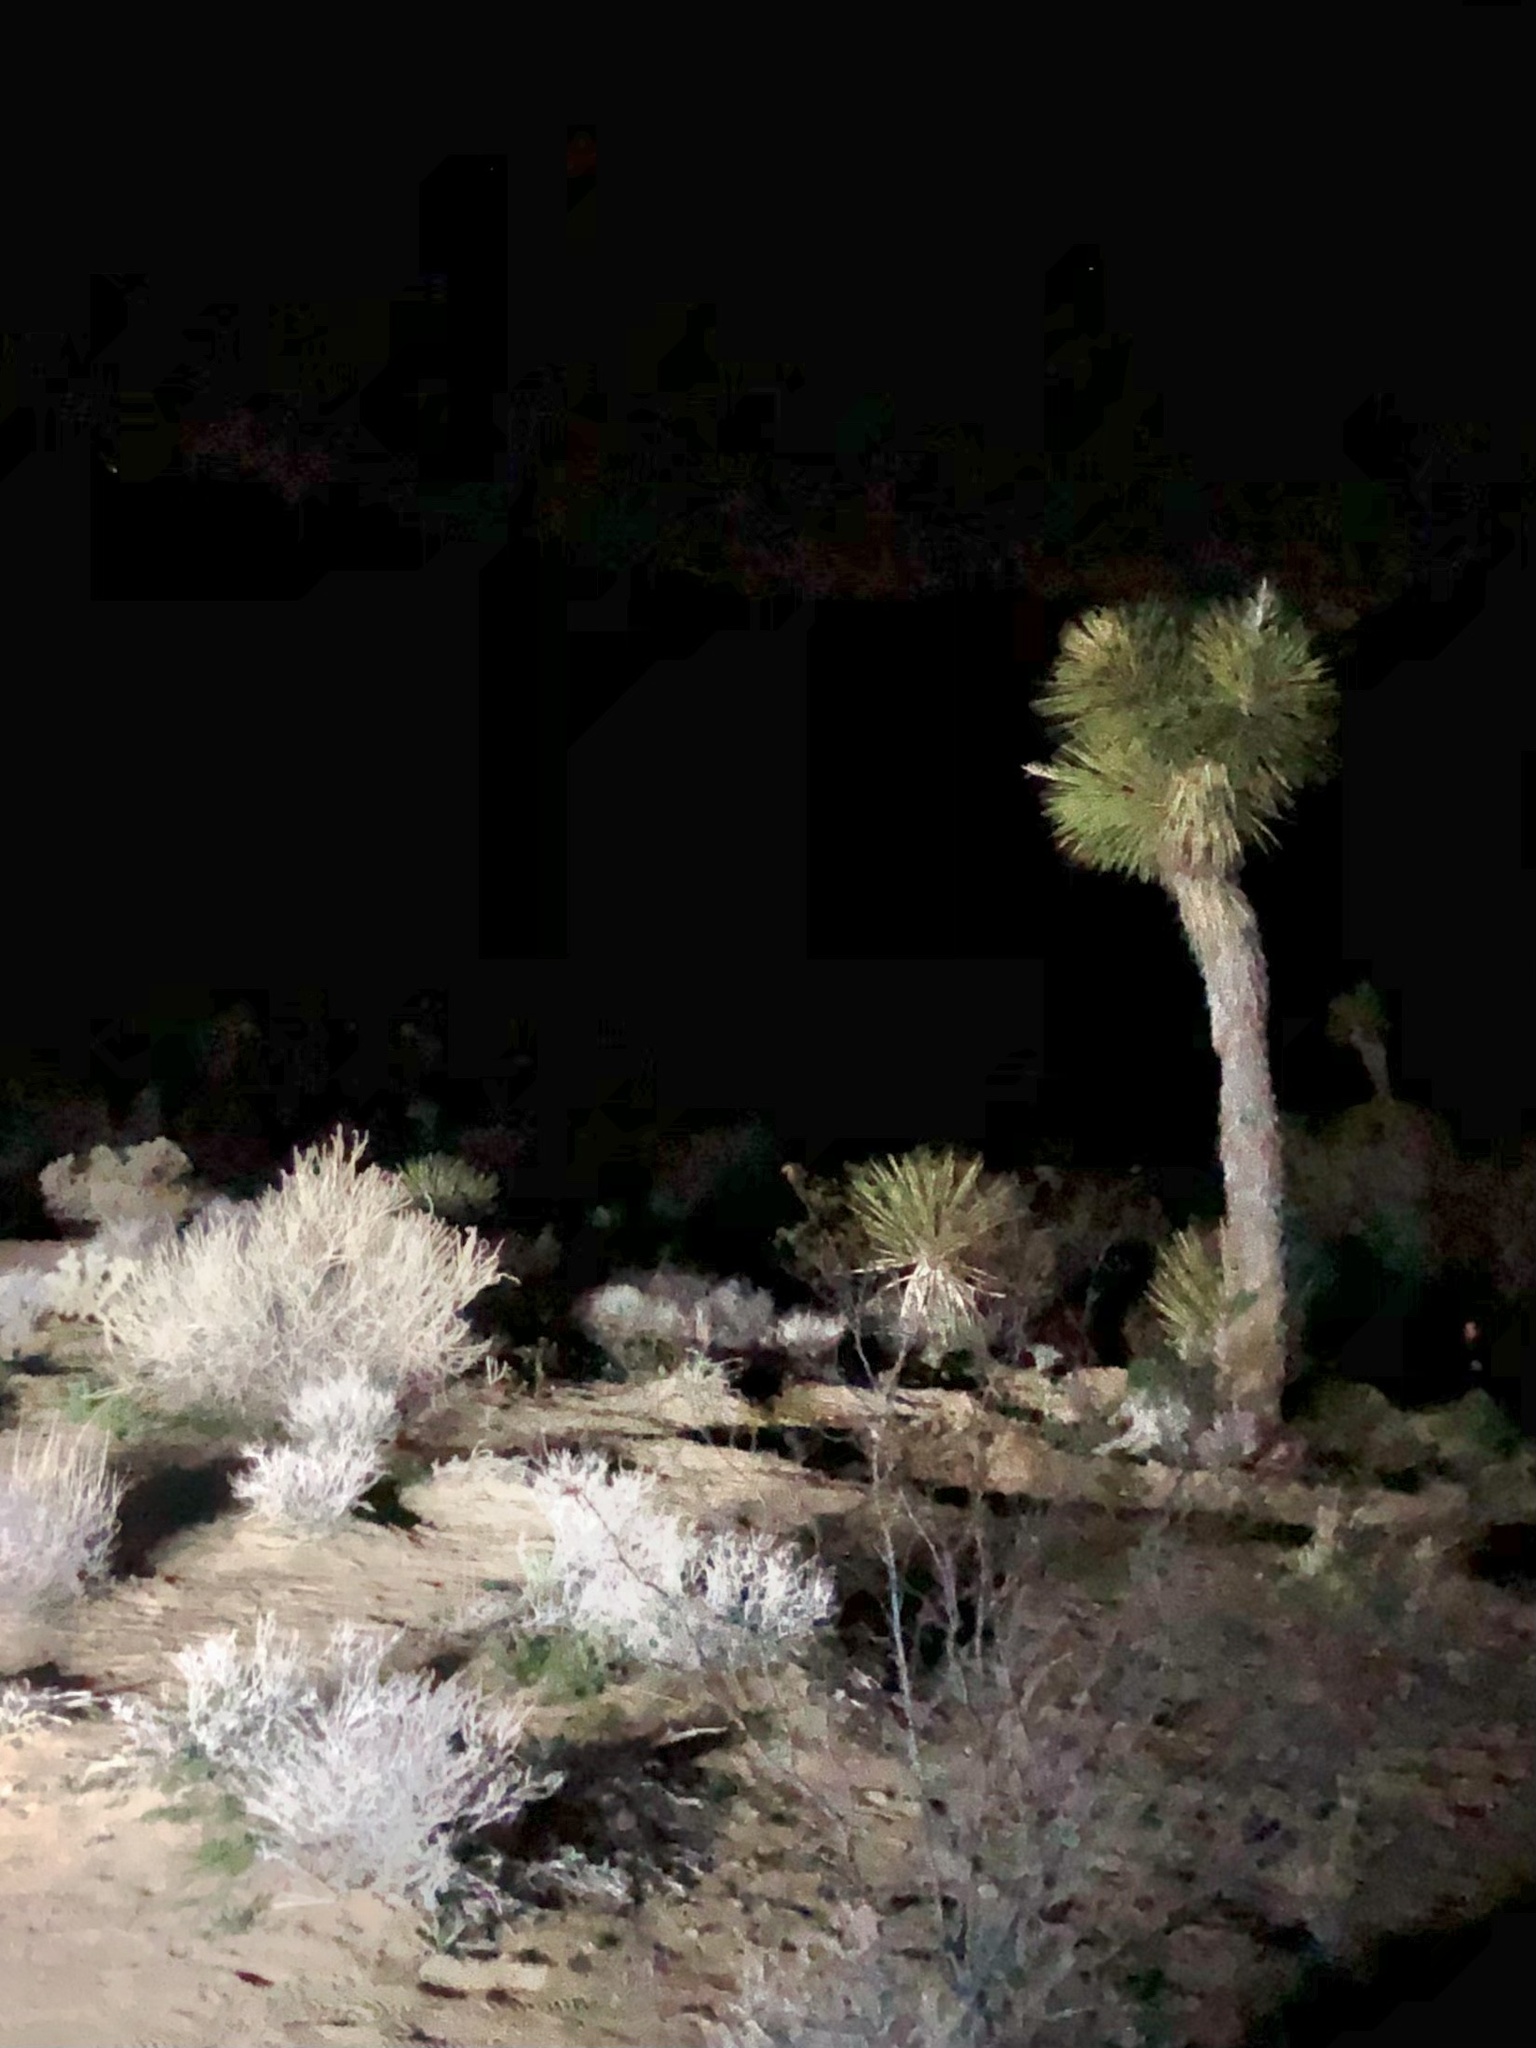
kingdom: Plantae
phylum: Tracheophyta
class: Liliopsida
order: Asparagales
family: Asparagaceae
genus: Yucca
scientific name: Yucca brevifolia
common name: Joshua tree
